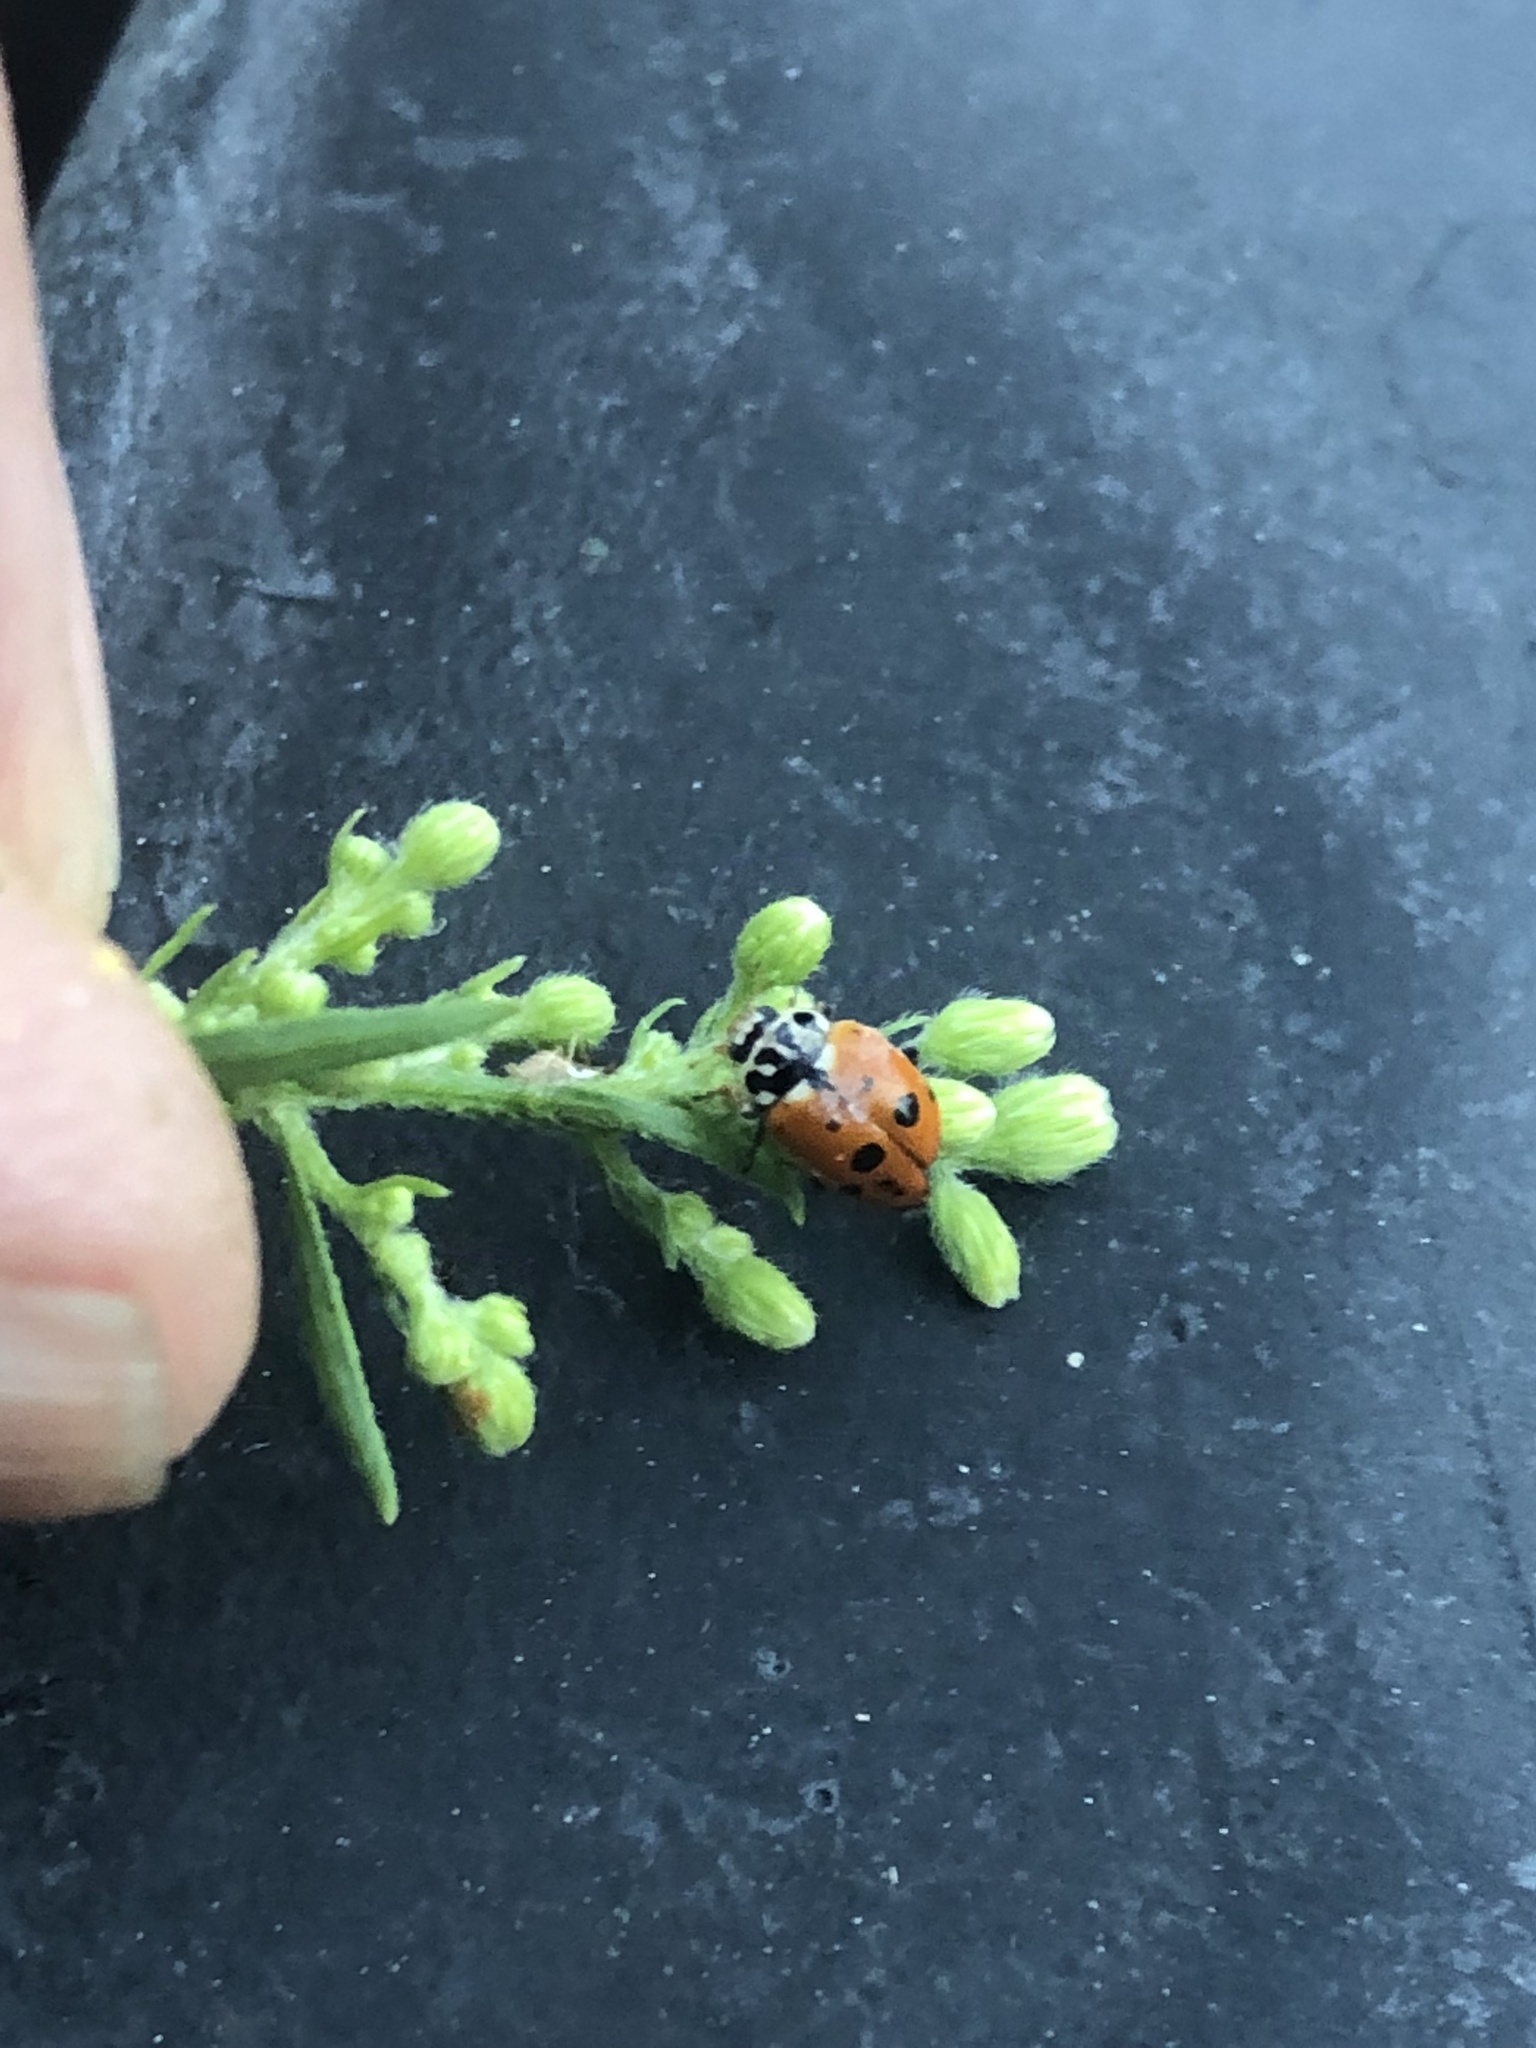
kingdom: Animalia
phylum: Arthropoda
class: Insecta
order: Coleoptera
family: Coccinellidae
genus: Hippodamia
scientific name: Hippodamia variegata
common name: Ladybird beetle
